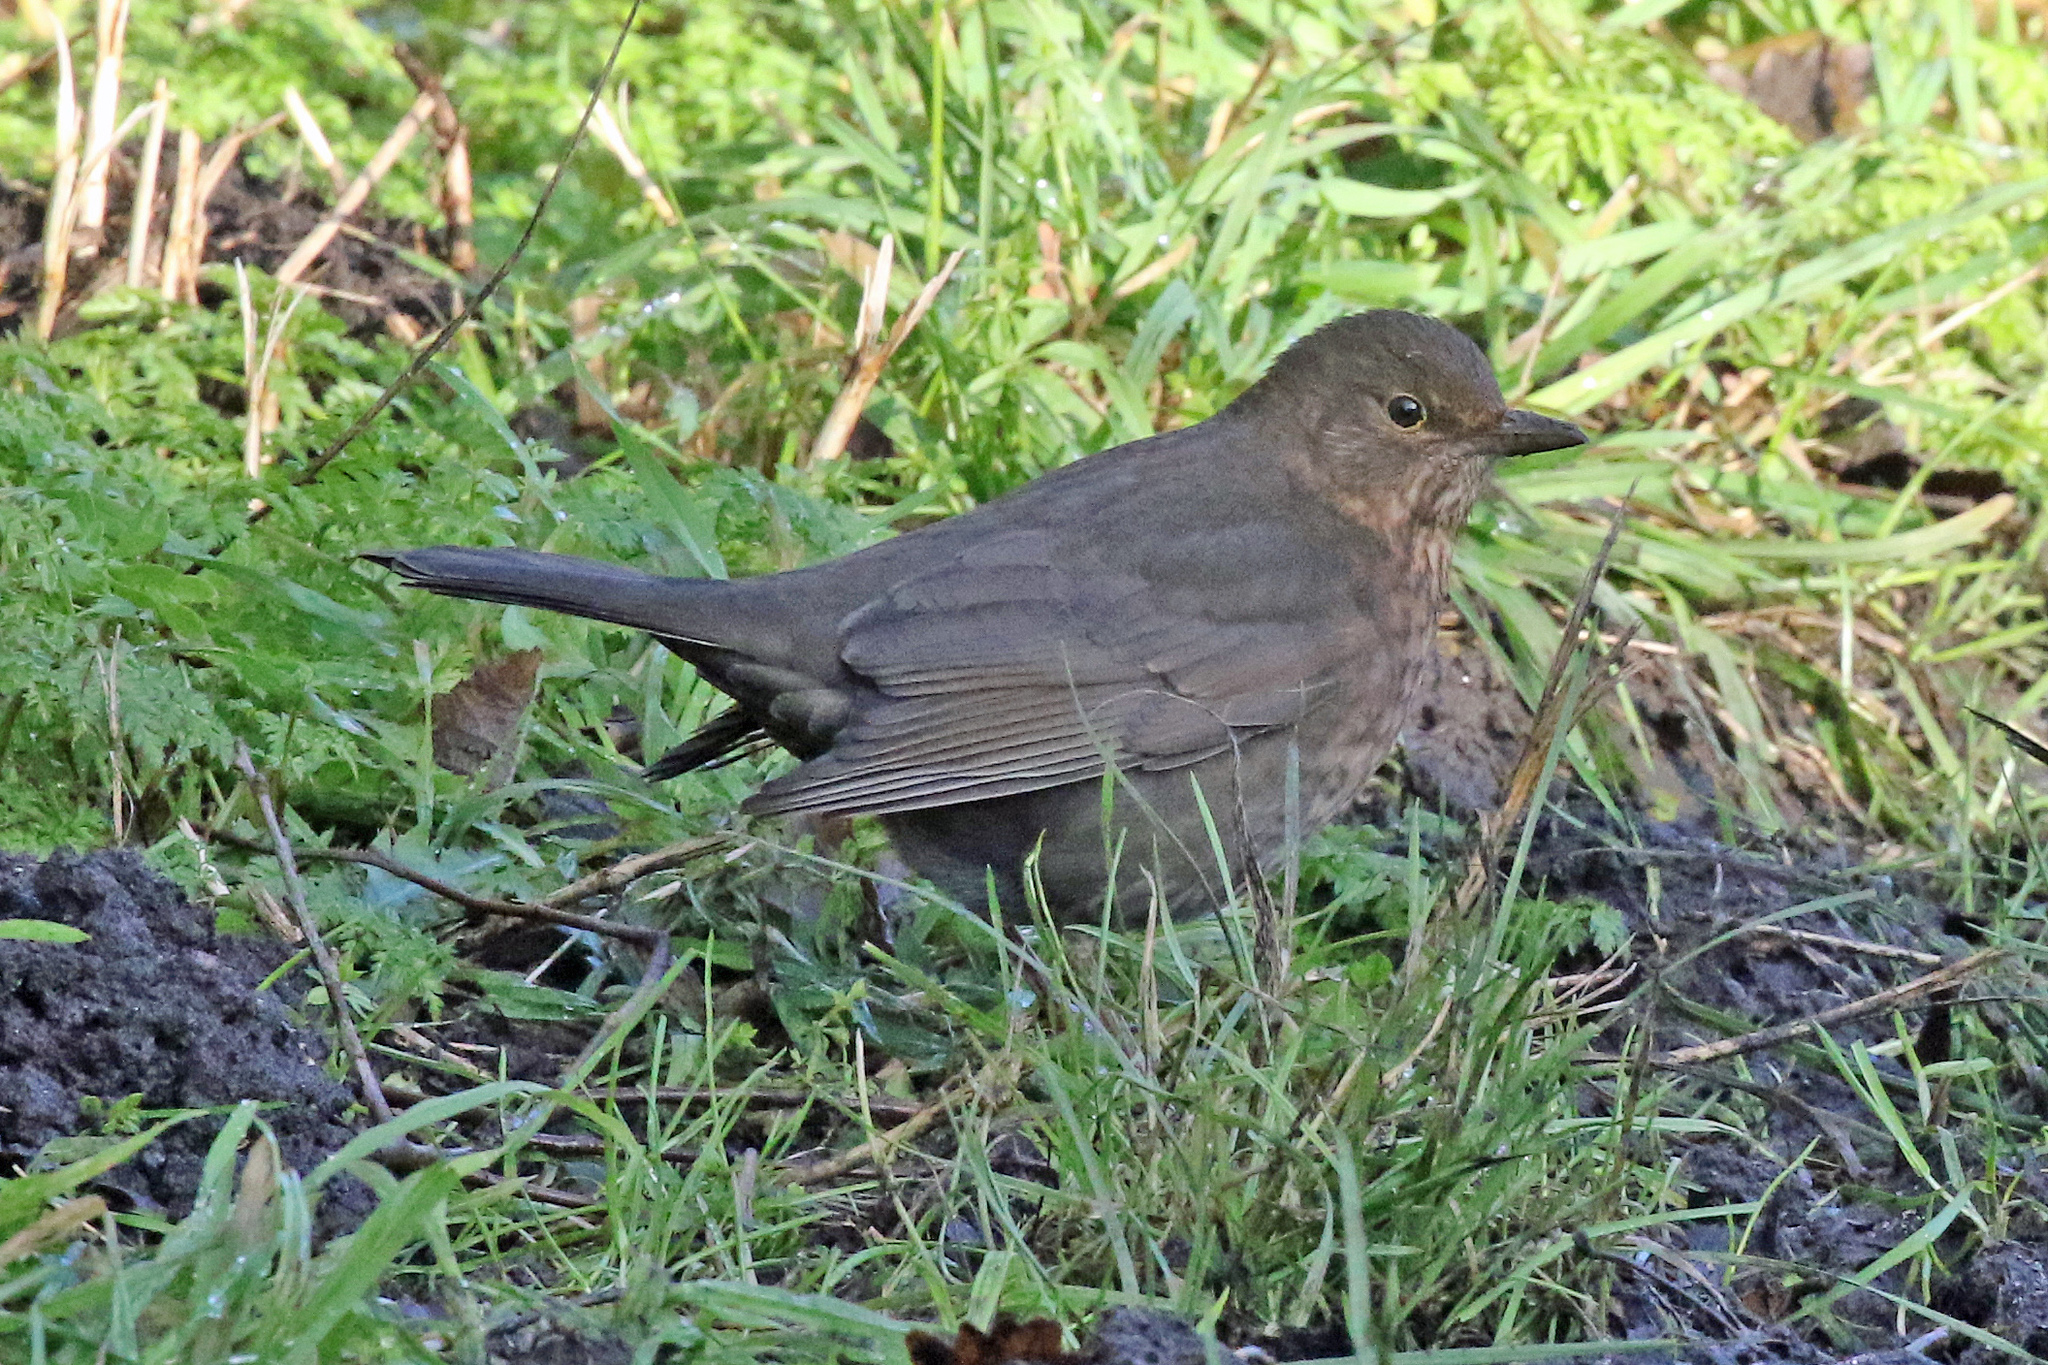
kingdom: Animalia
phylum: Chordata
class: Aves
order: Passeriformes
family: Turdidae
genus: Turdus
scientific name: Turdus merula
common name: Common blackbird
